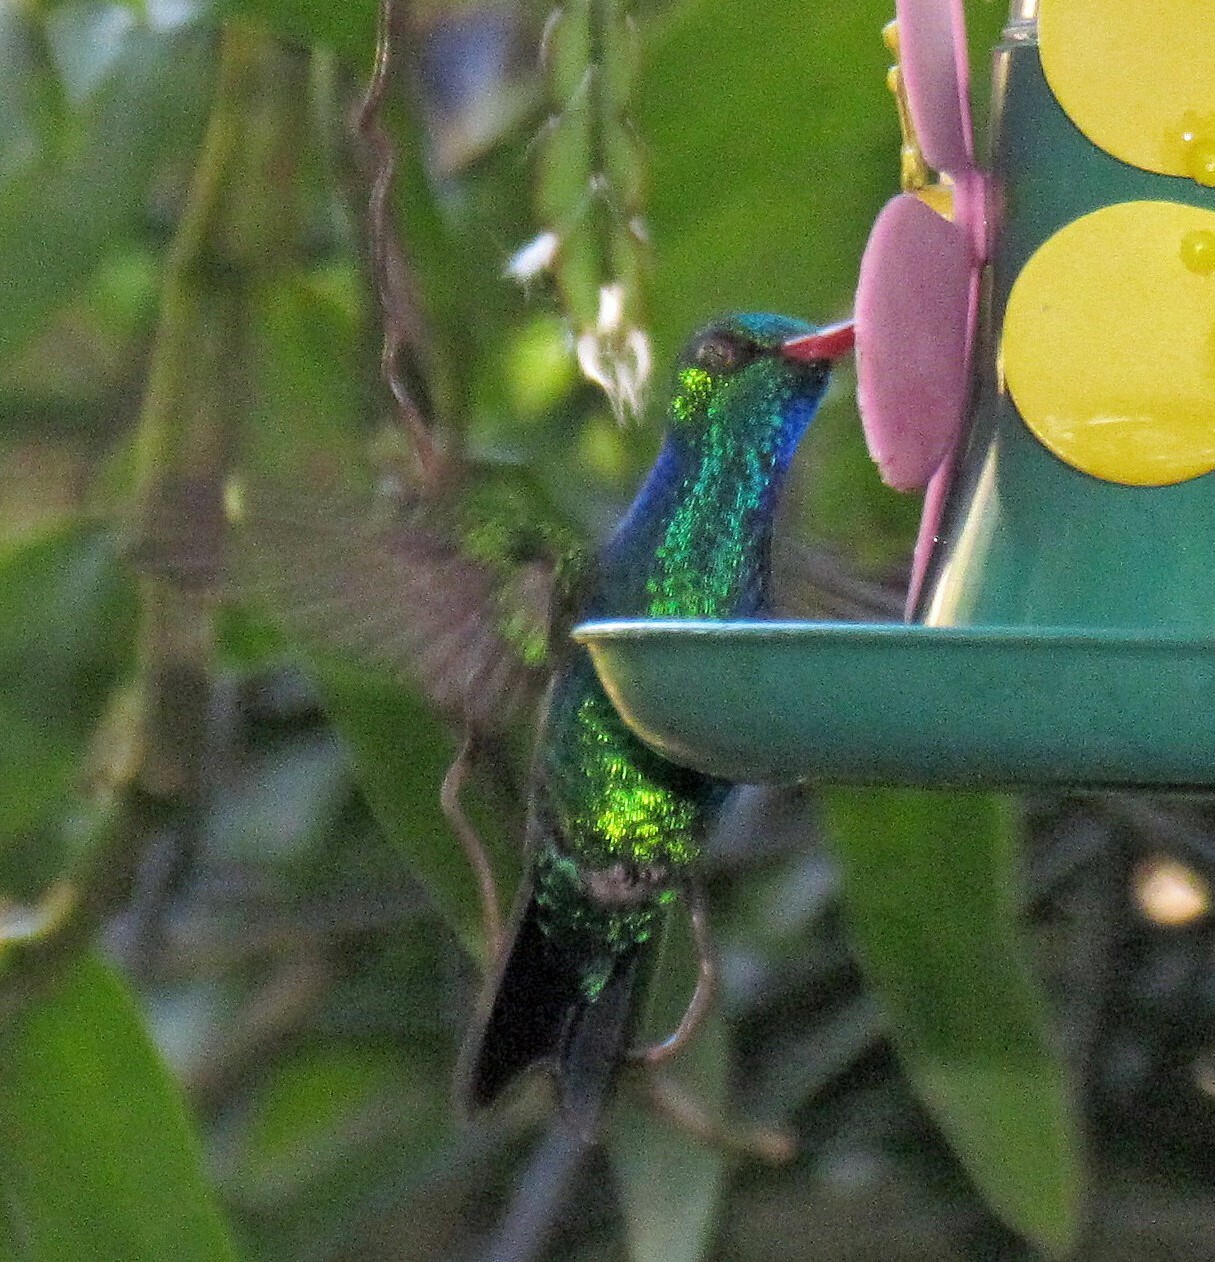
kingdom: Animalia
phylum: Chordata
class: Aves
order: Apodiformes
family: Trochilidae
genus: Chlorostilbon
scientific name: Chlorostilbon lucidus
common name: Glittering-bellied emerald
